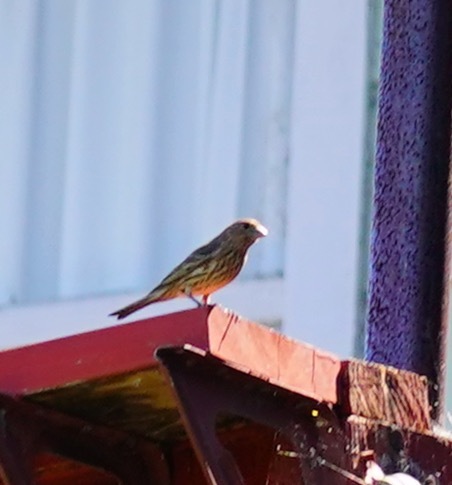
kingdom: Animalia
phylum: Chordata
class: Aves
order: Passeriformes
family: Fringillidae
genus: Haemorhous
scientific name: Haemorhous mexicanus
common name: House finch
